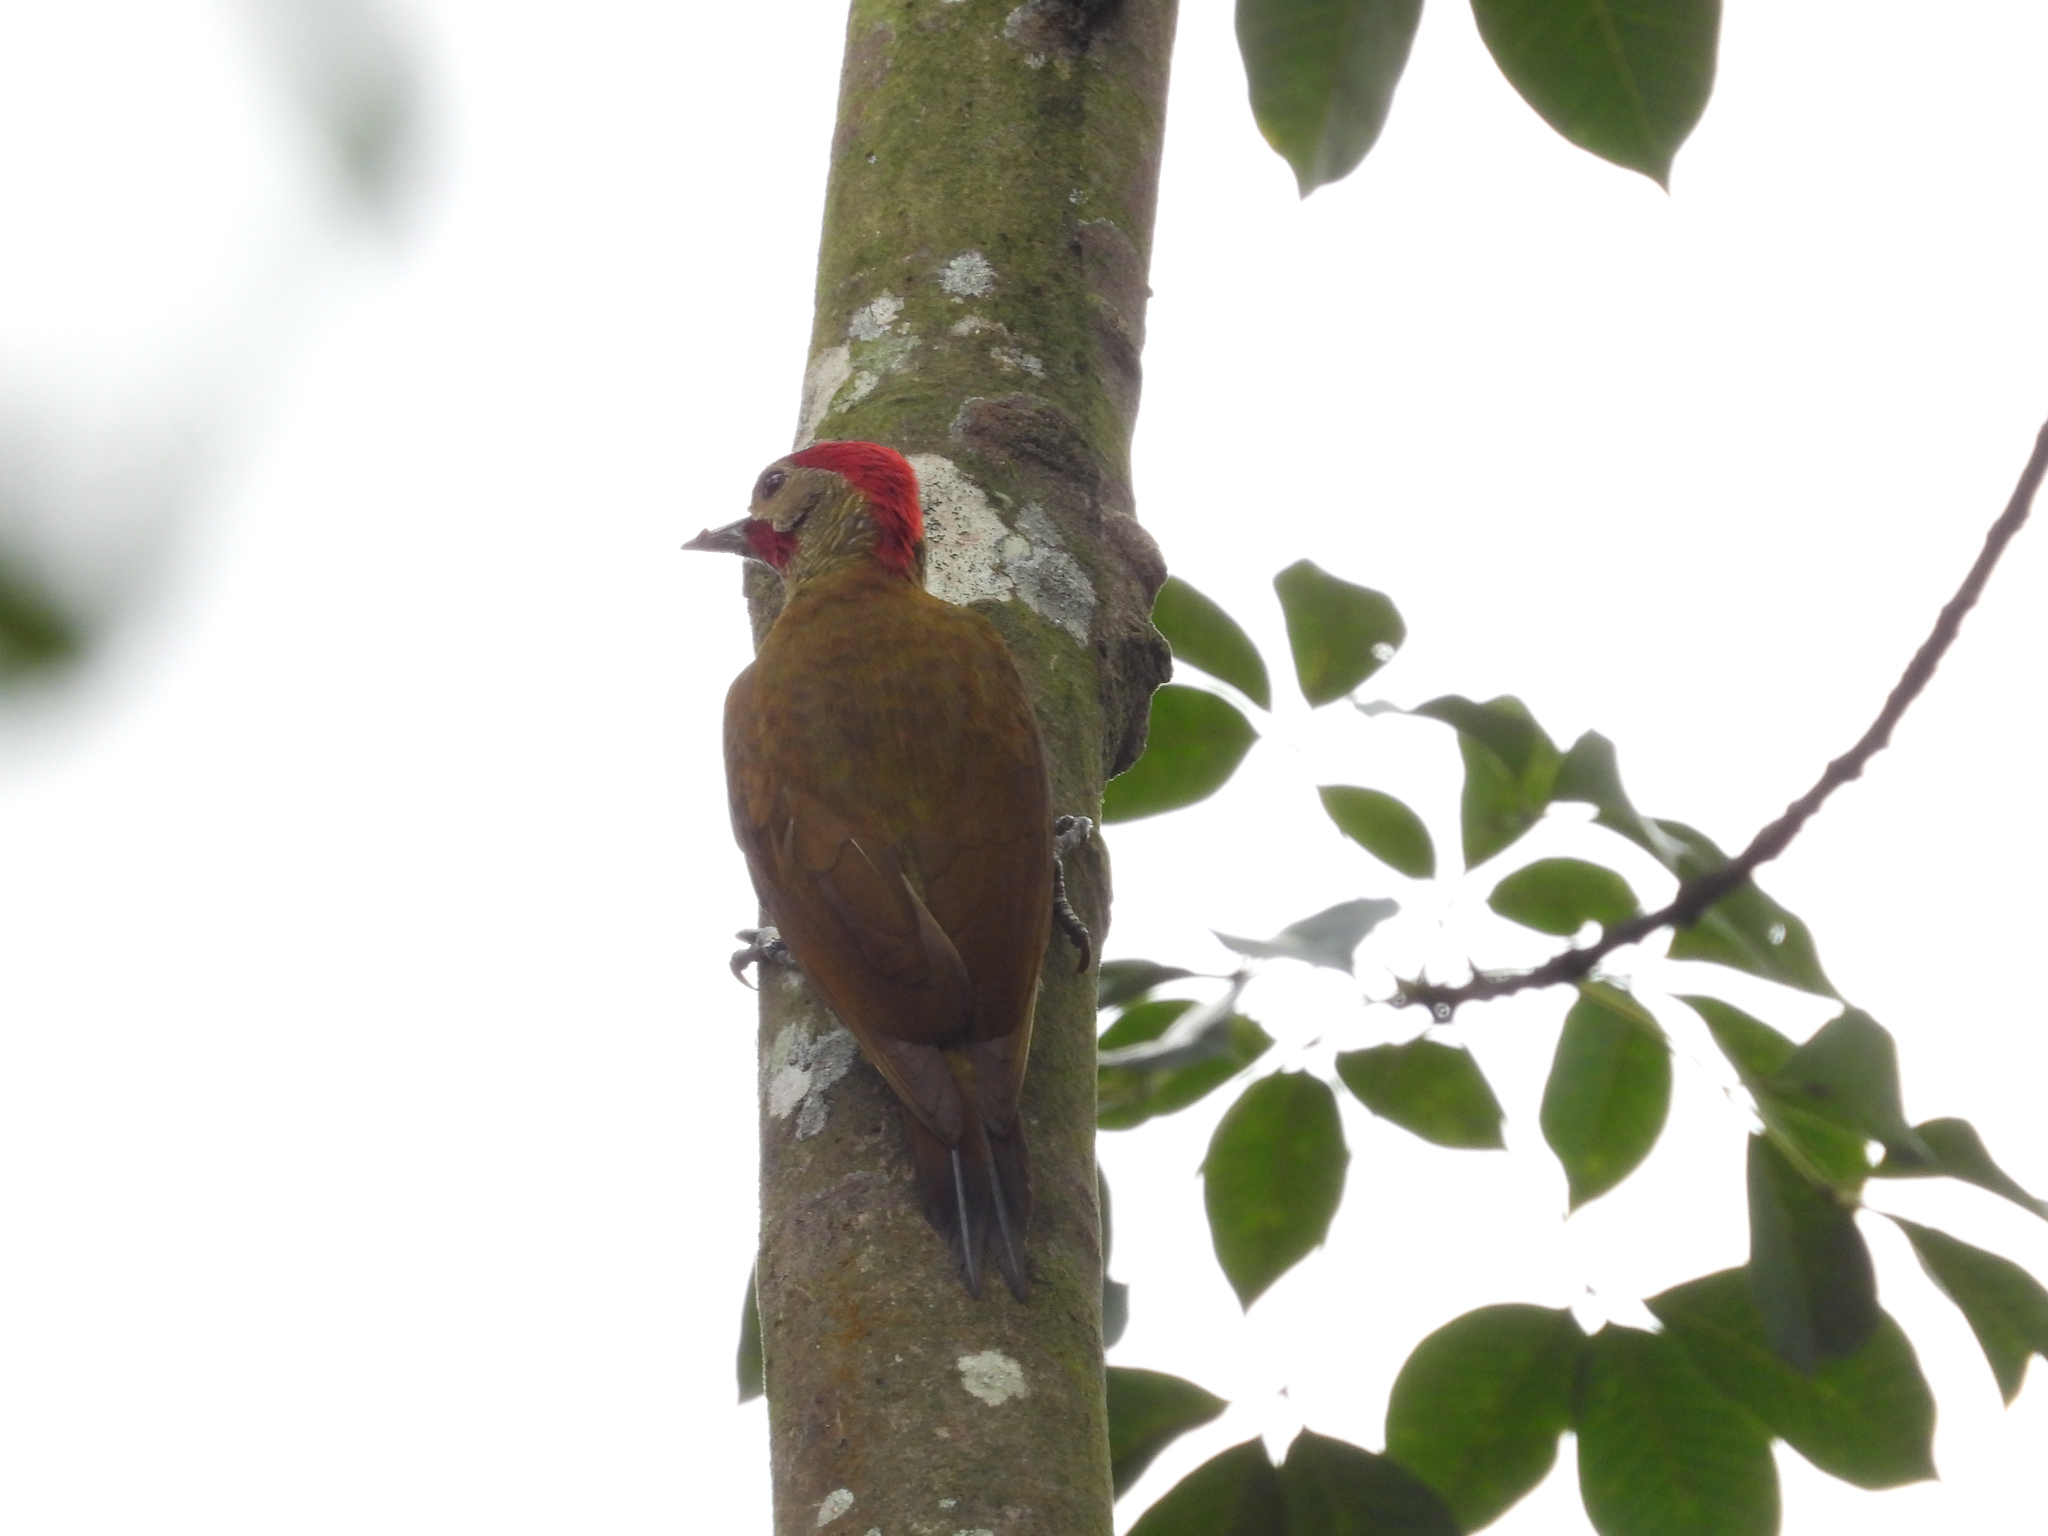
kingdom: Animalia
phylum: Chordata
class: Aves
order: Piciformes
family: Picidae
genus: Colaptes
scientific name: Colaptes rubiginosus
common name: Golden-olive woodpecker
